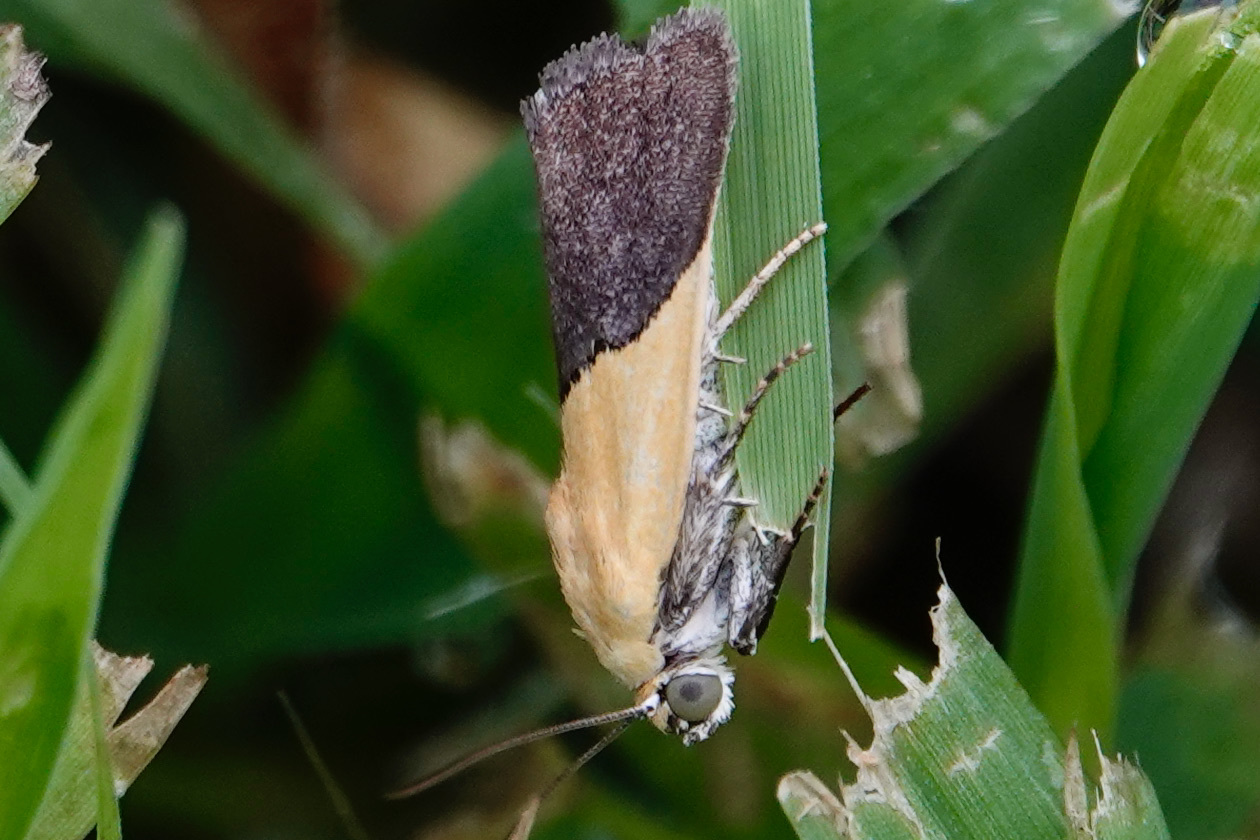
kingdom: Animalia
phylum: Arthropoda
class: Insecta
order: Lepidoptera
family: Noctuidae
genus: Acontia
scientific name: Acontia semiflava
